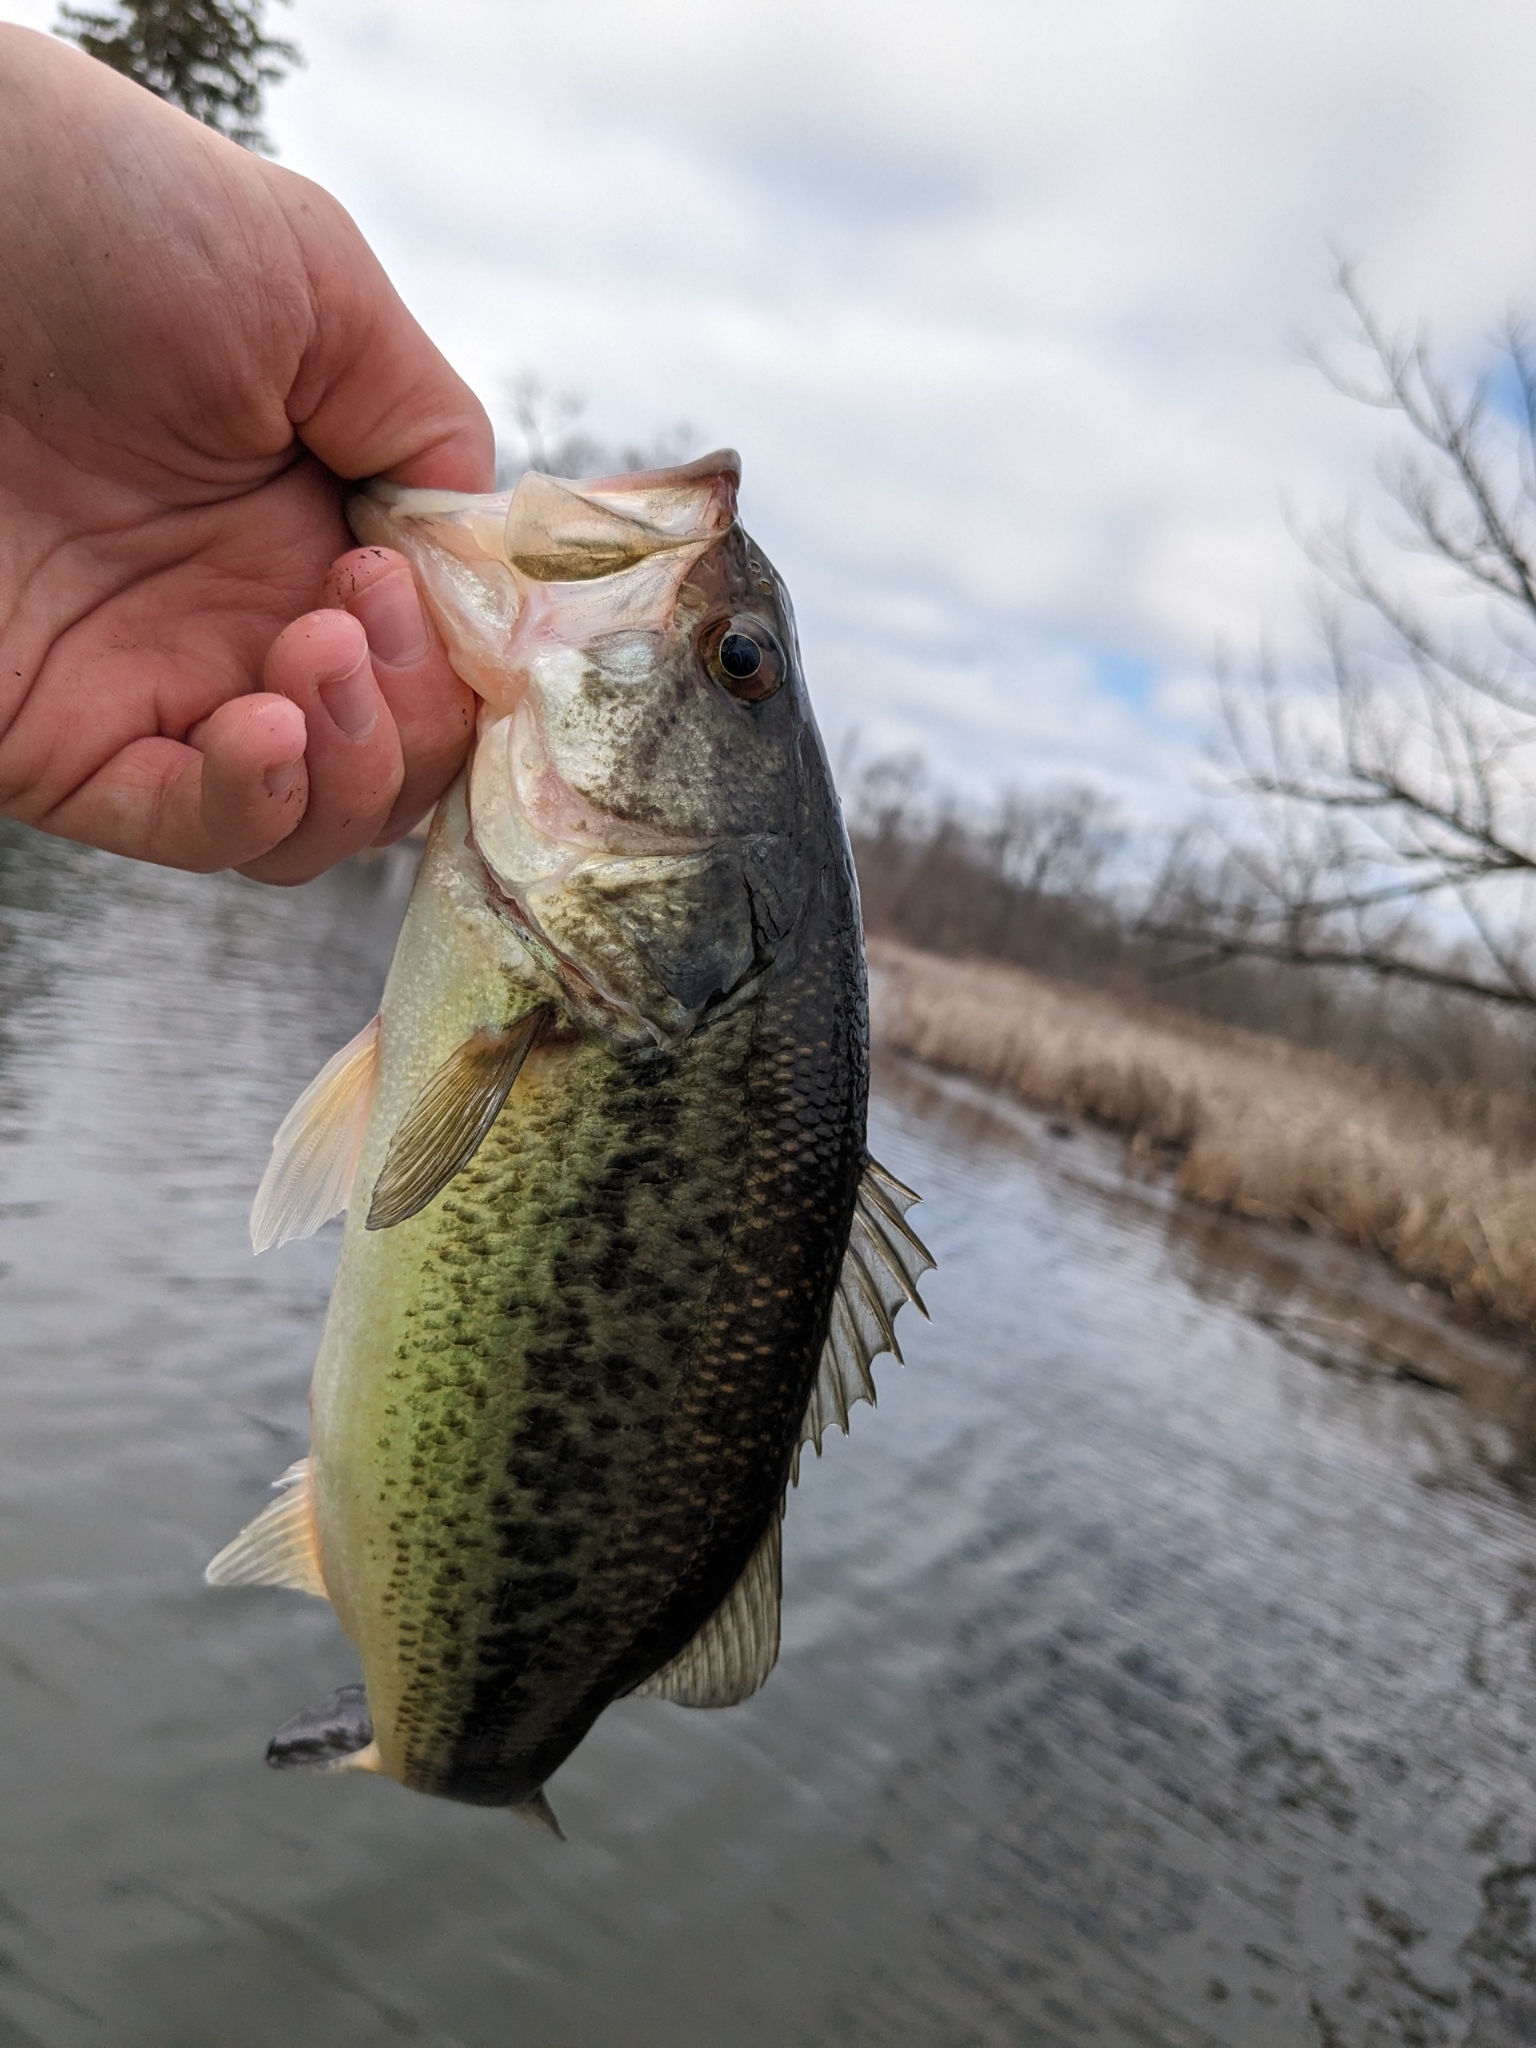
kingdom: Animalia
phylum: Chordata
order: Perciformes
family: Centrarchidae
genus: Micropterus
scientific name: Micropterus
